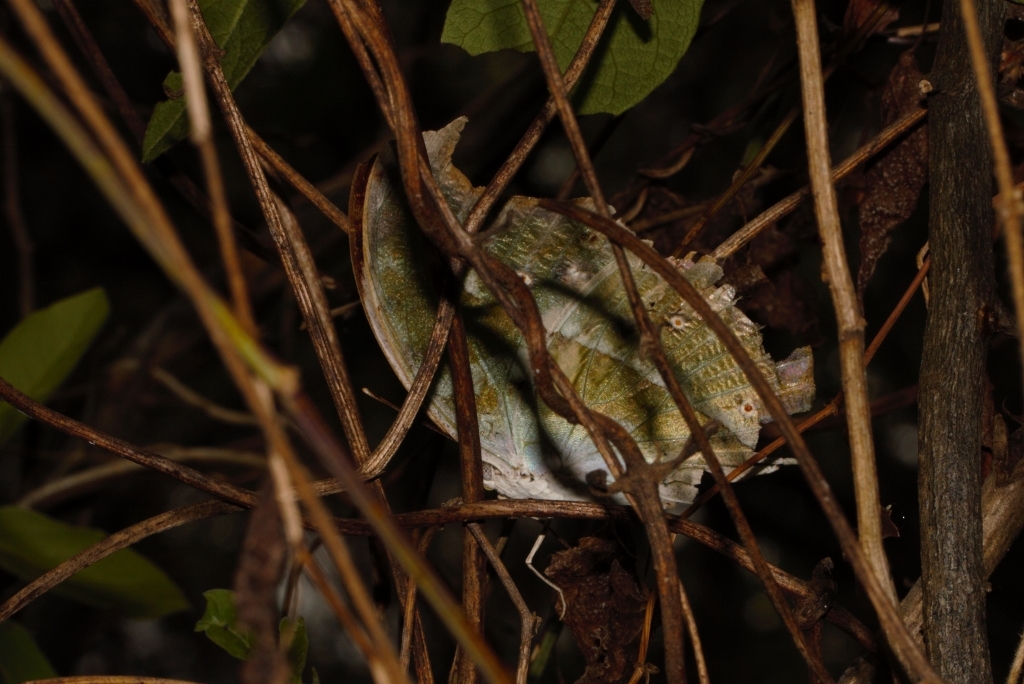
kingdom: Animalia
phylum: Arthropoda
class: Insecta
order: Lepidoptera
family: Nymphalidae
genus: Salamis
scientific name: Salamis Protogoniomorpha parhassus
